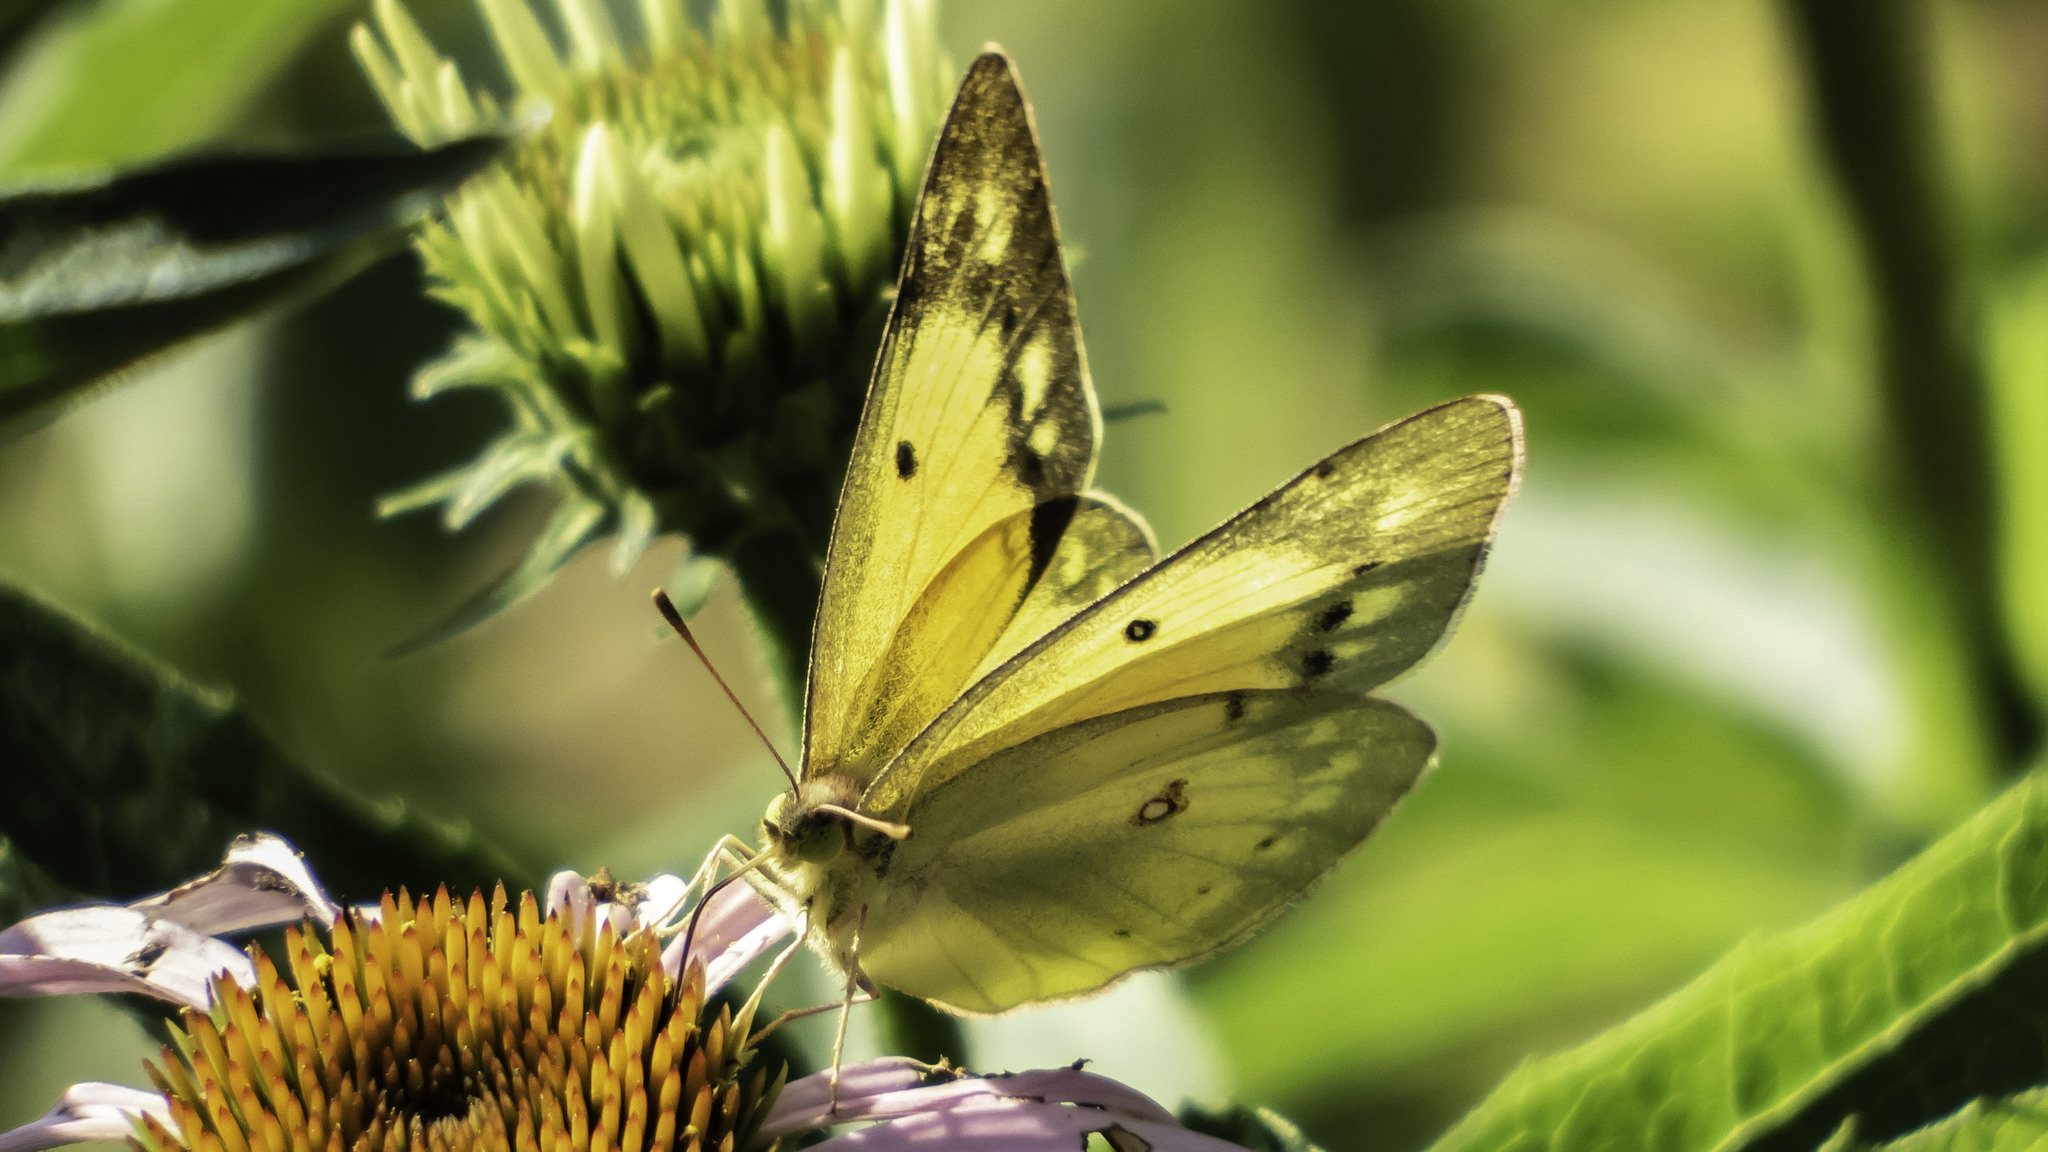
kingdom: Animalia
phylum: Arthropoda
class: Insecta
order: Lepidoptera
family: Pieridae
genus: Colias
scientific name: Colias eurytheme
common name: Alfalfa butterfly
